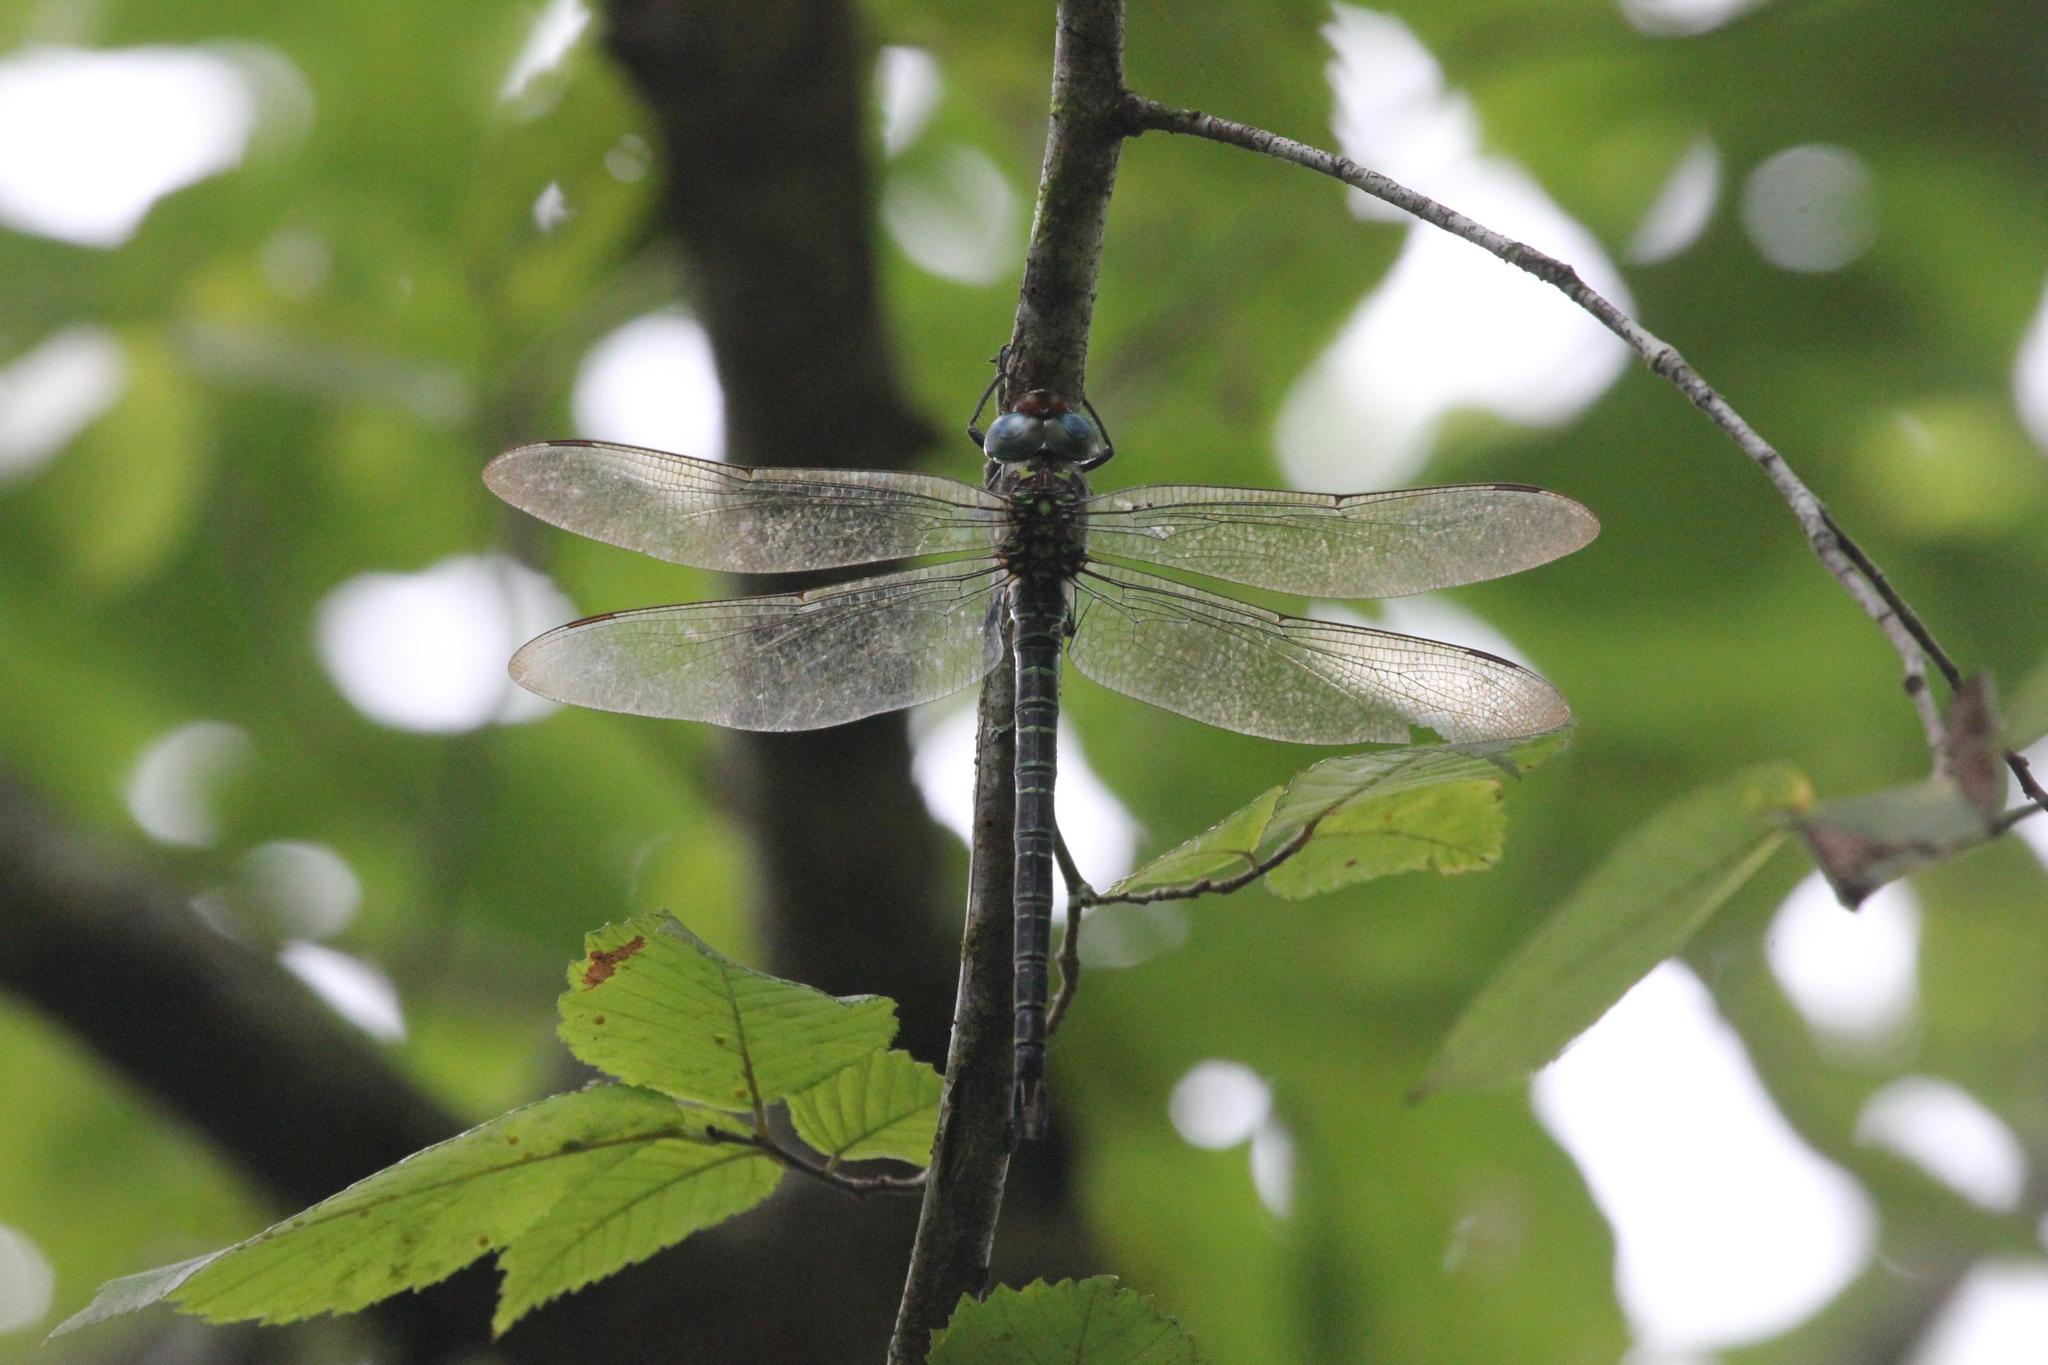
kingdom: Animalia
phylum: Arthropoda
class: Insecta
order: Odonata
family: Aeshnidae
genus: Epiaeschna
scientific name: Epiaeschna heros
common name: Swamp darner
